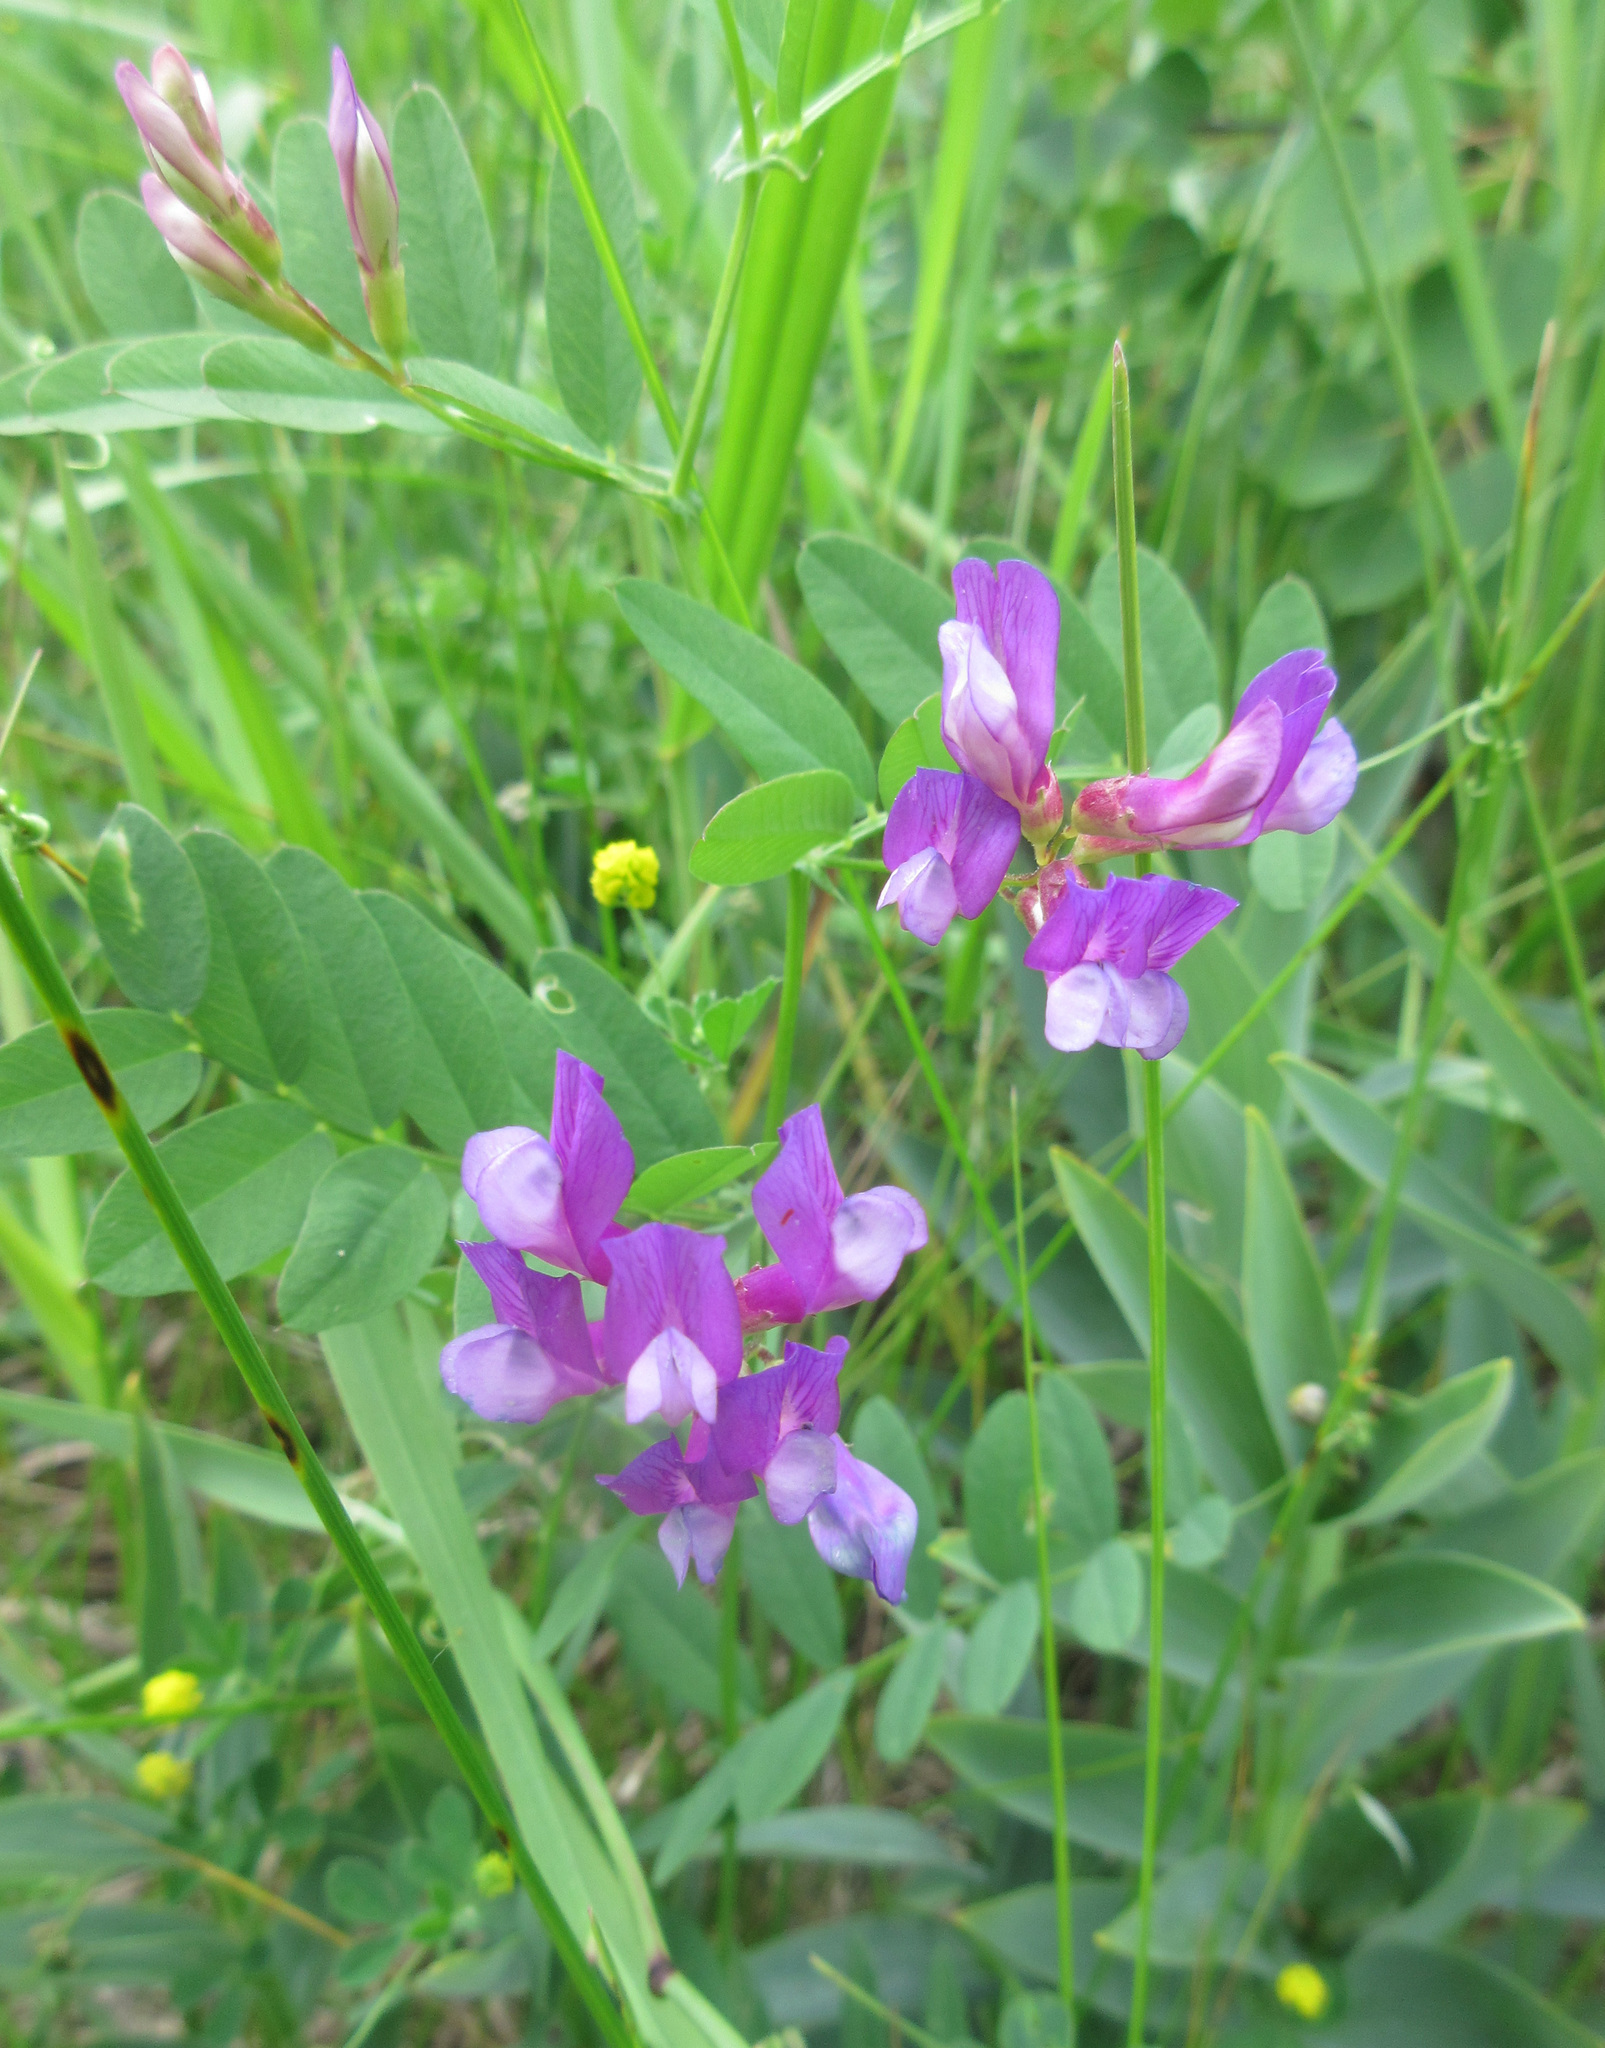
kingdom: Plantae
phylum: Tracheophyta
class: Magnoliopsida
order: Fabales
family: Fabaceae
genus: Vicia
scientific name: Vicia americana
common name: American vetch
